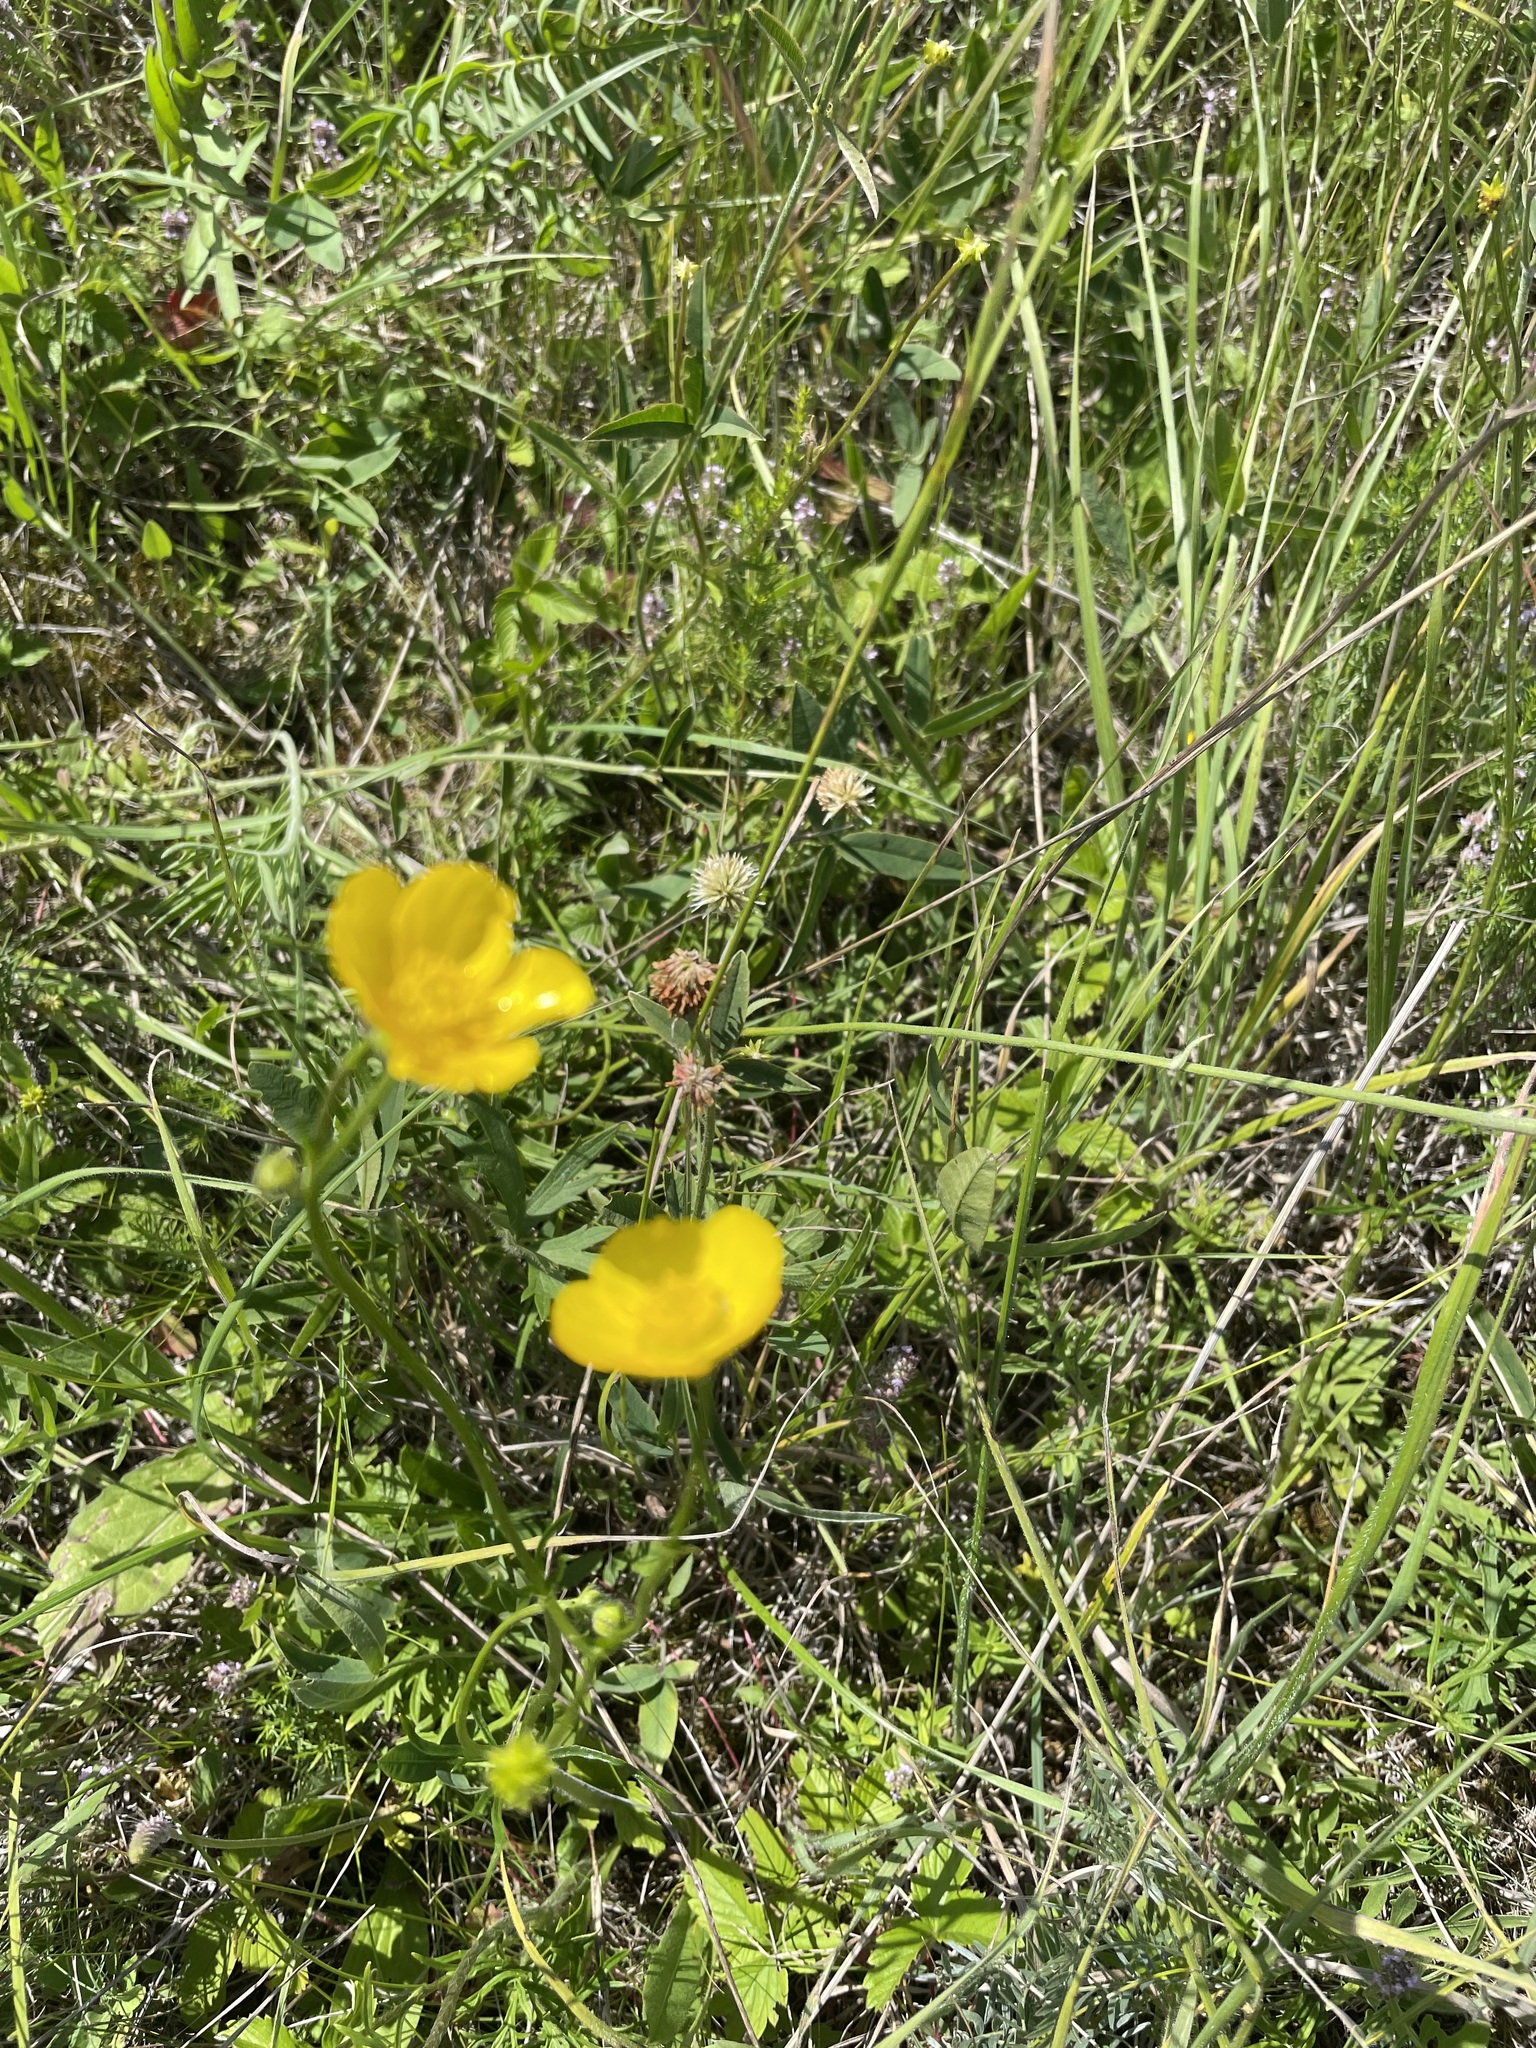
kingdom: Plantae
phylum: Tracheophyta
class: Magnoliopsida
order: Ranunculales
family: Ranunculaceae
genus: Ranunculus
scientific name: Ranunculus polyanthemos
